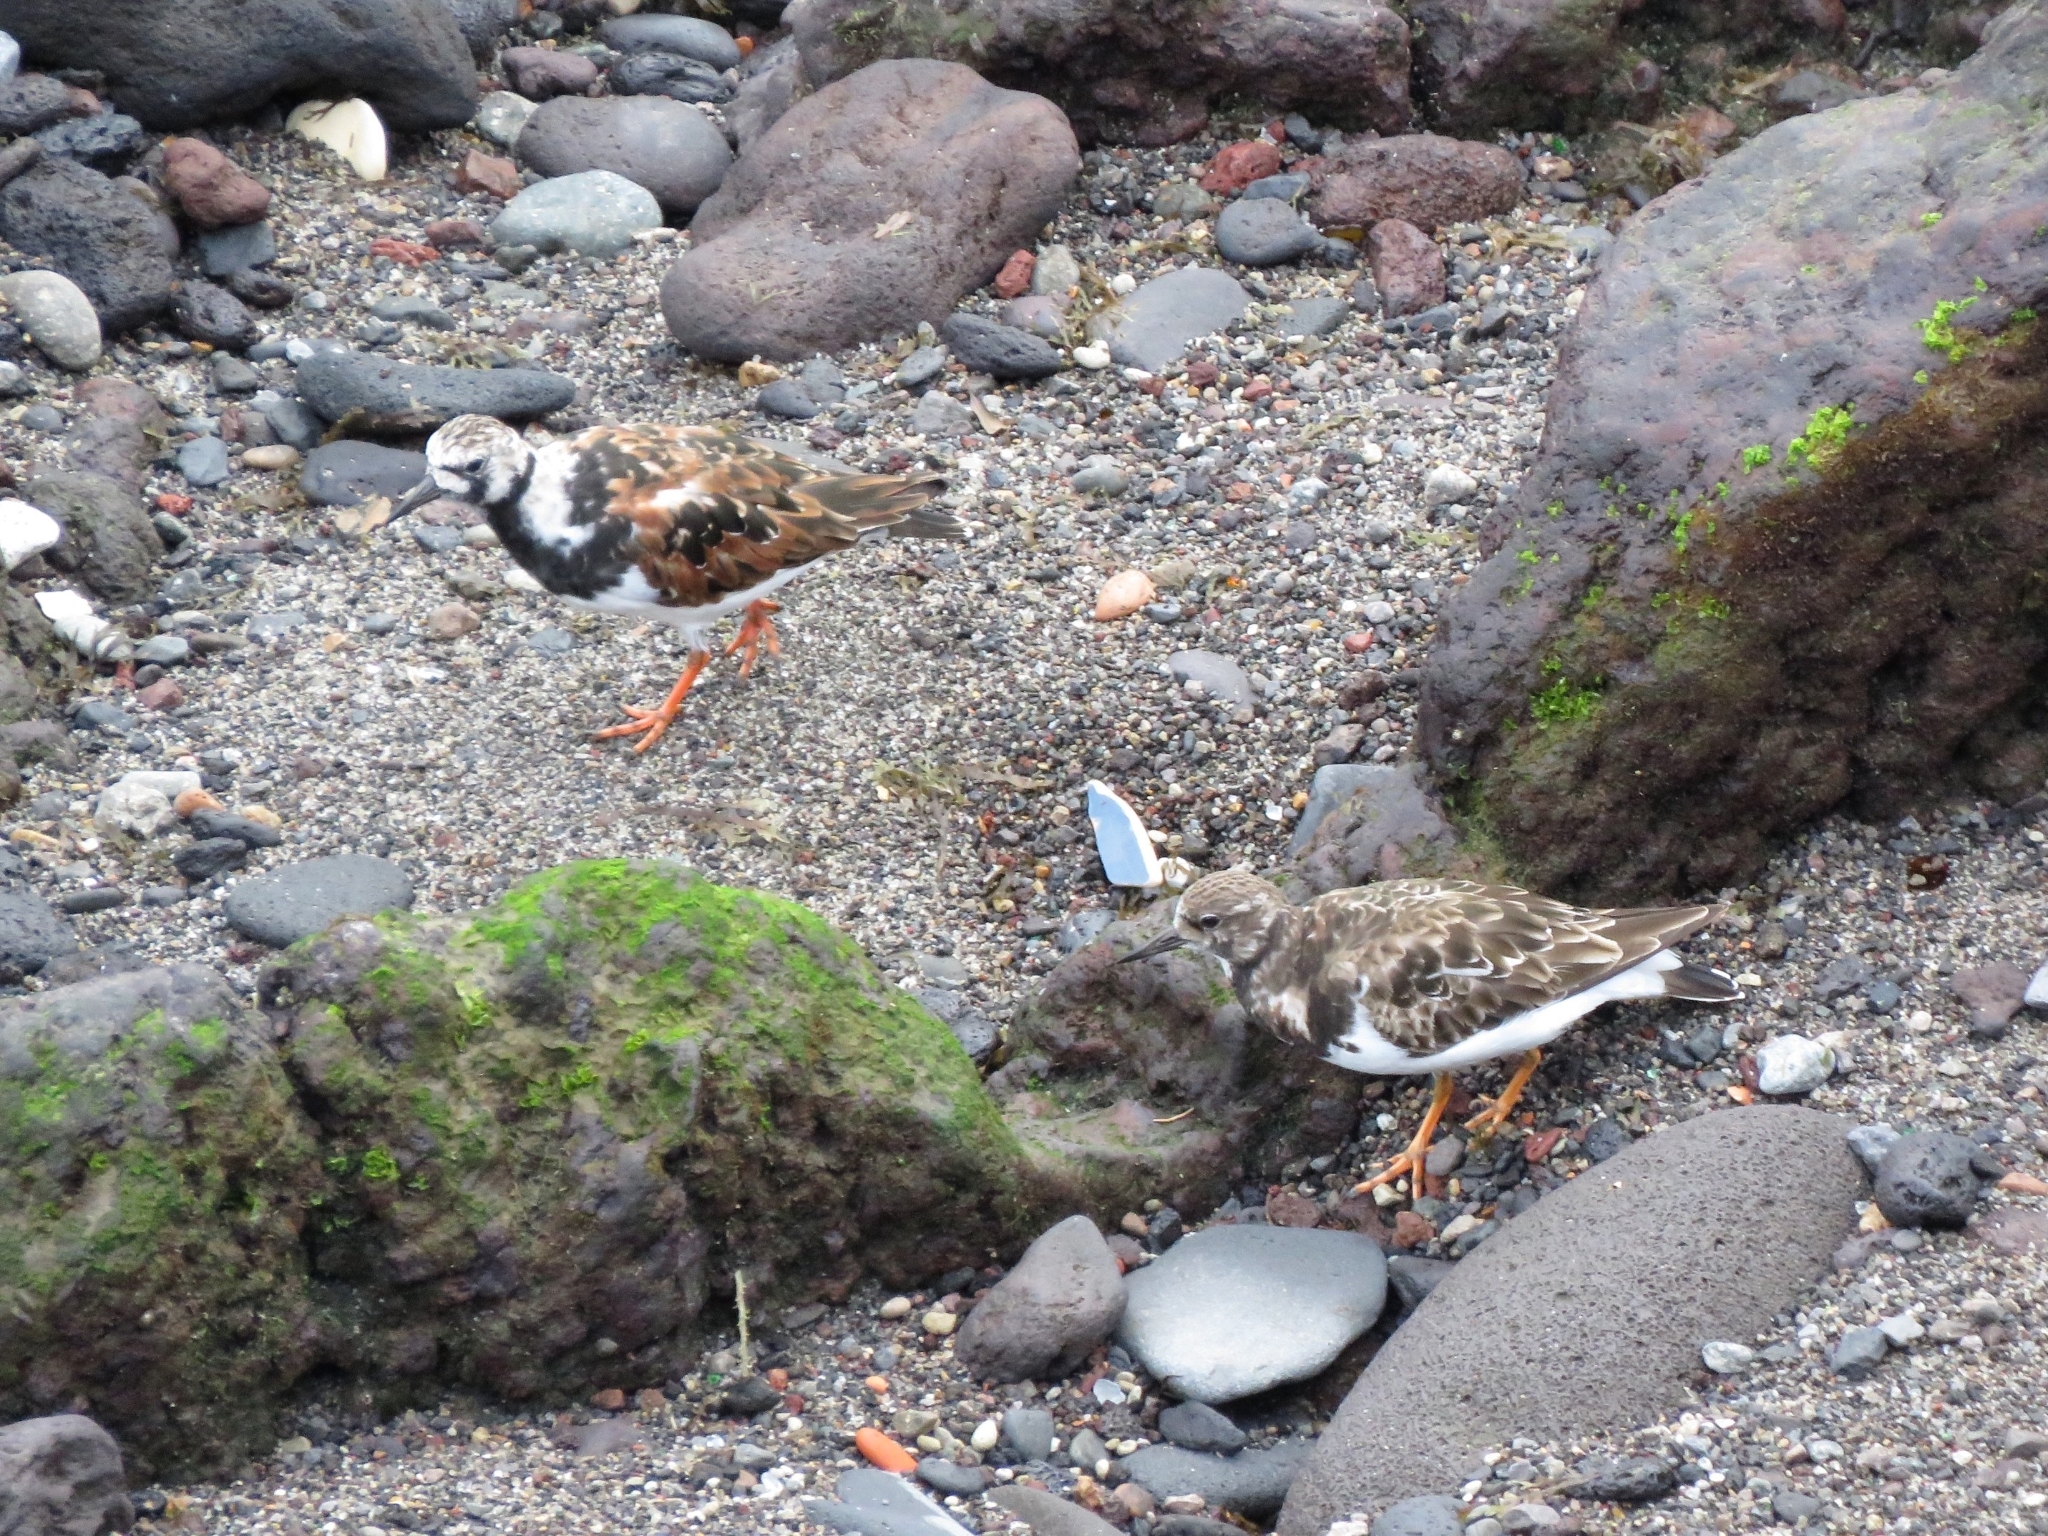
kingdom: Animalia
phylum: Chordata
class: Aves
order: Charadriiformes
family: Scolopacidae
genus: Arenaria
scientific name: Arenaria interpres
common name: Ruddy turnstone
